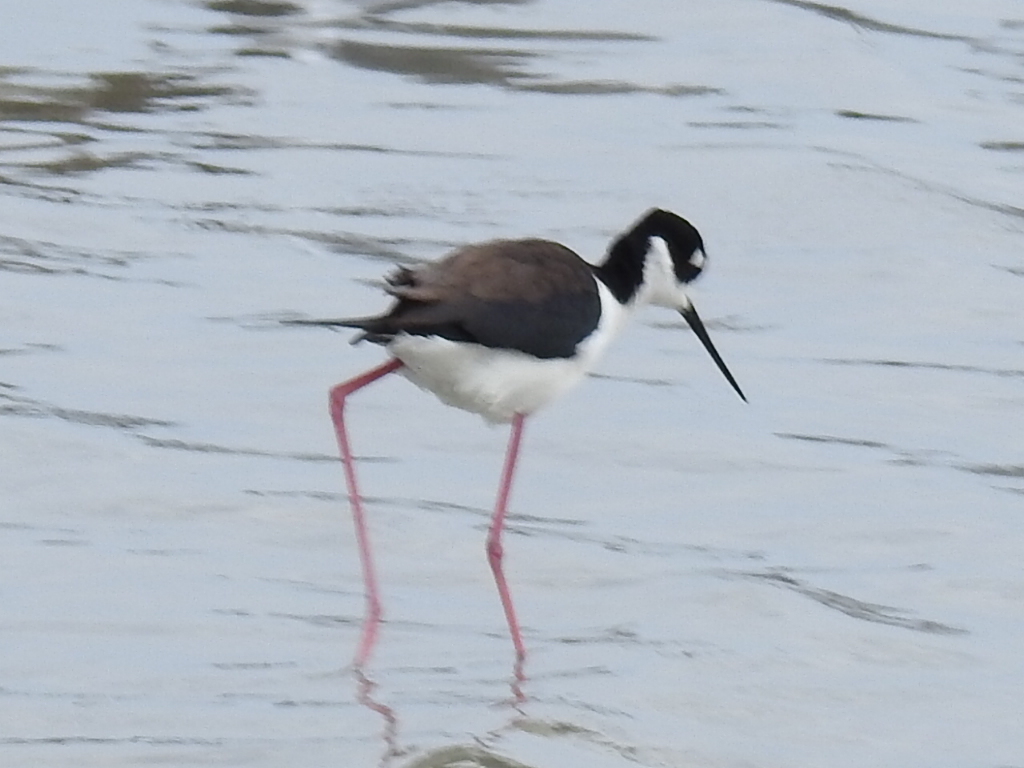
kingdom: Animalia
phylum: Chordata
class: Aves
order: Charadriiformes
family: Recurvirostridae
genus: Himantopus
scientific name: Himantopus mexicanus
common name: Black-necked stilt
